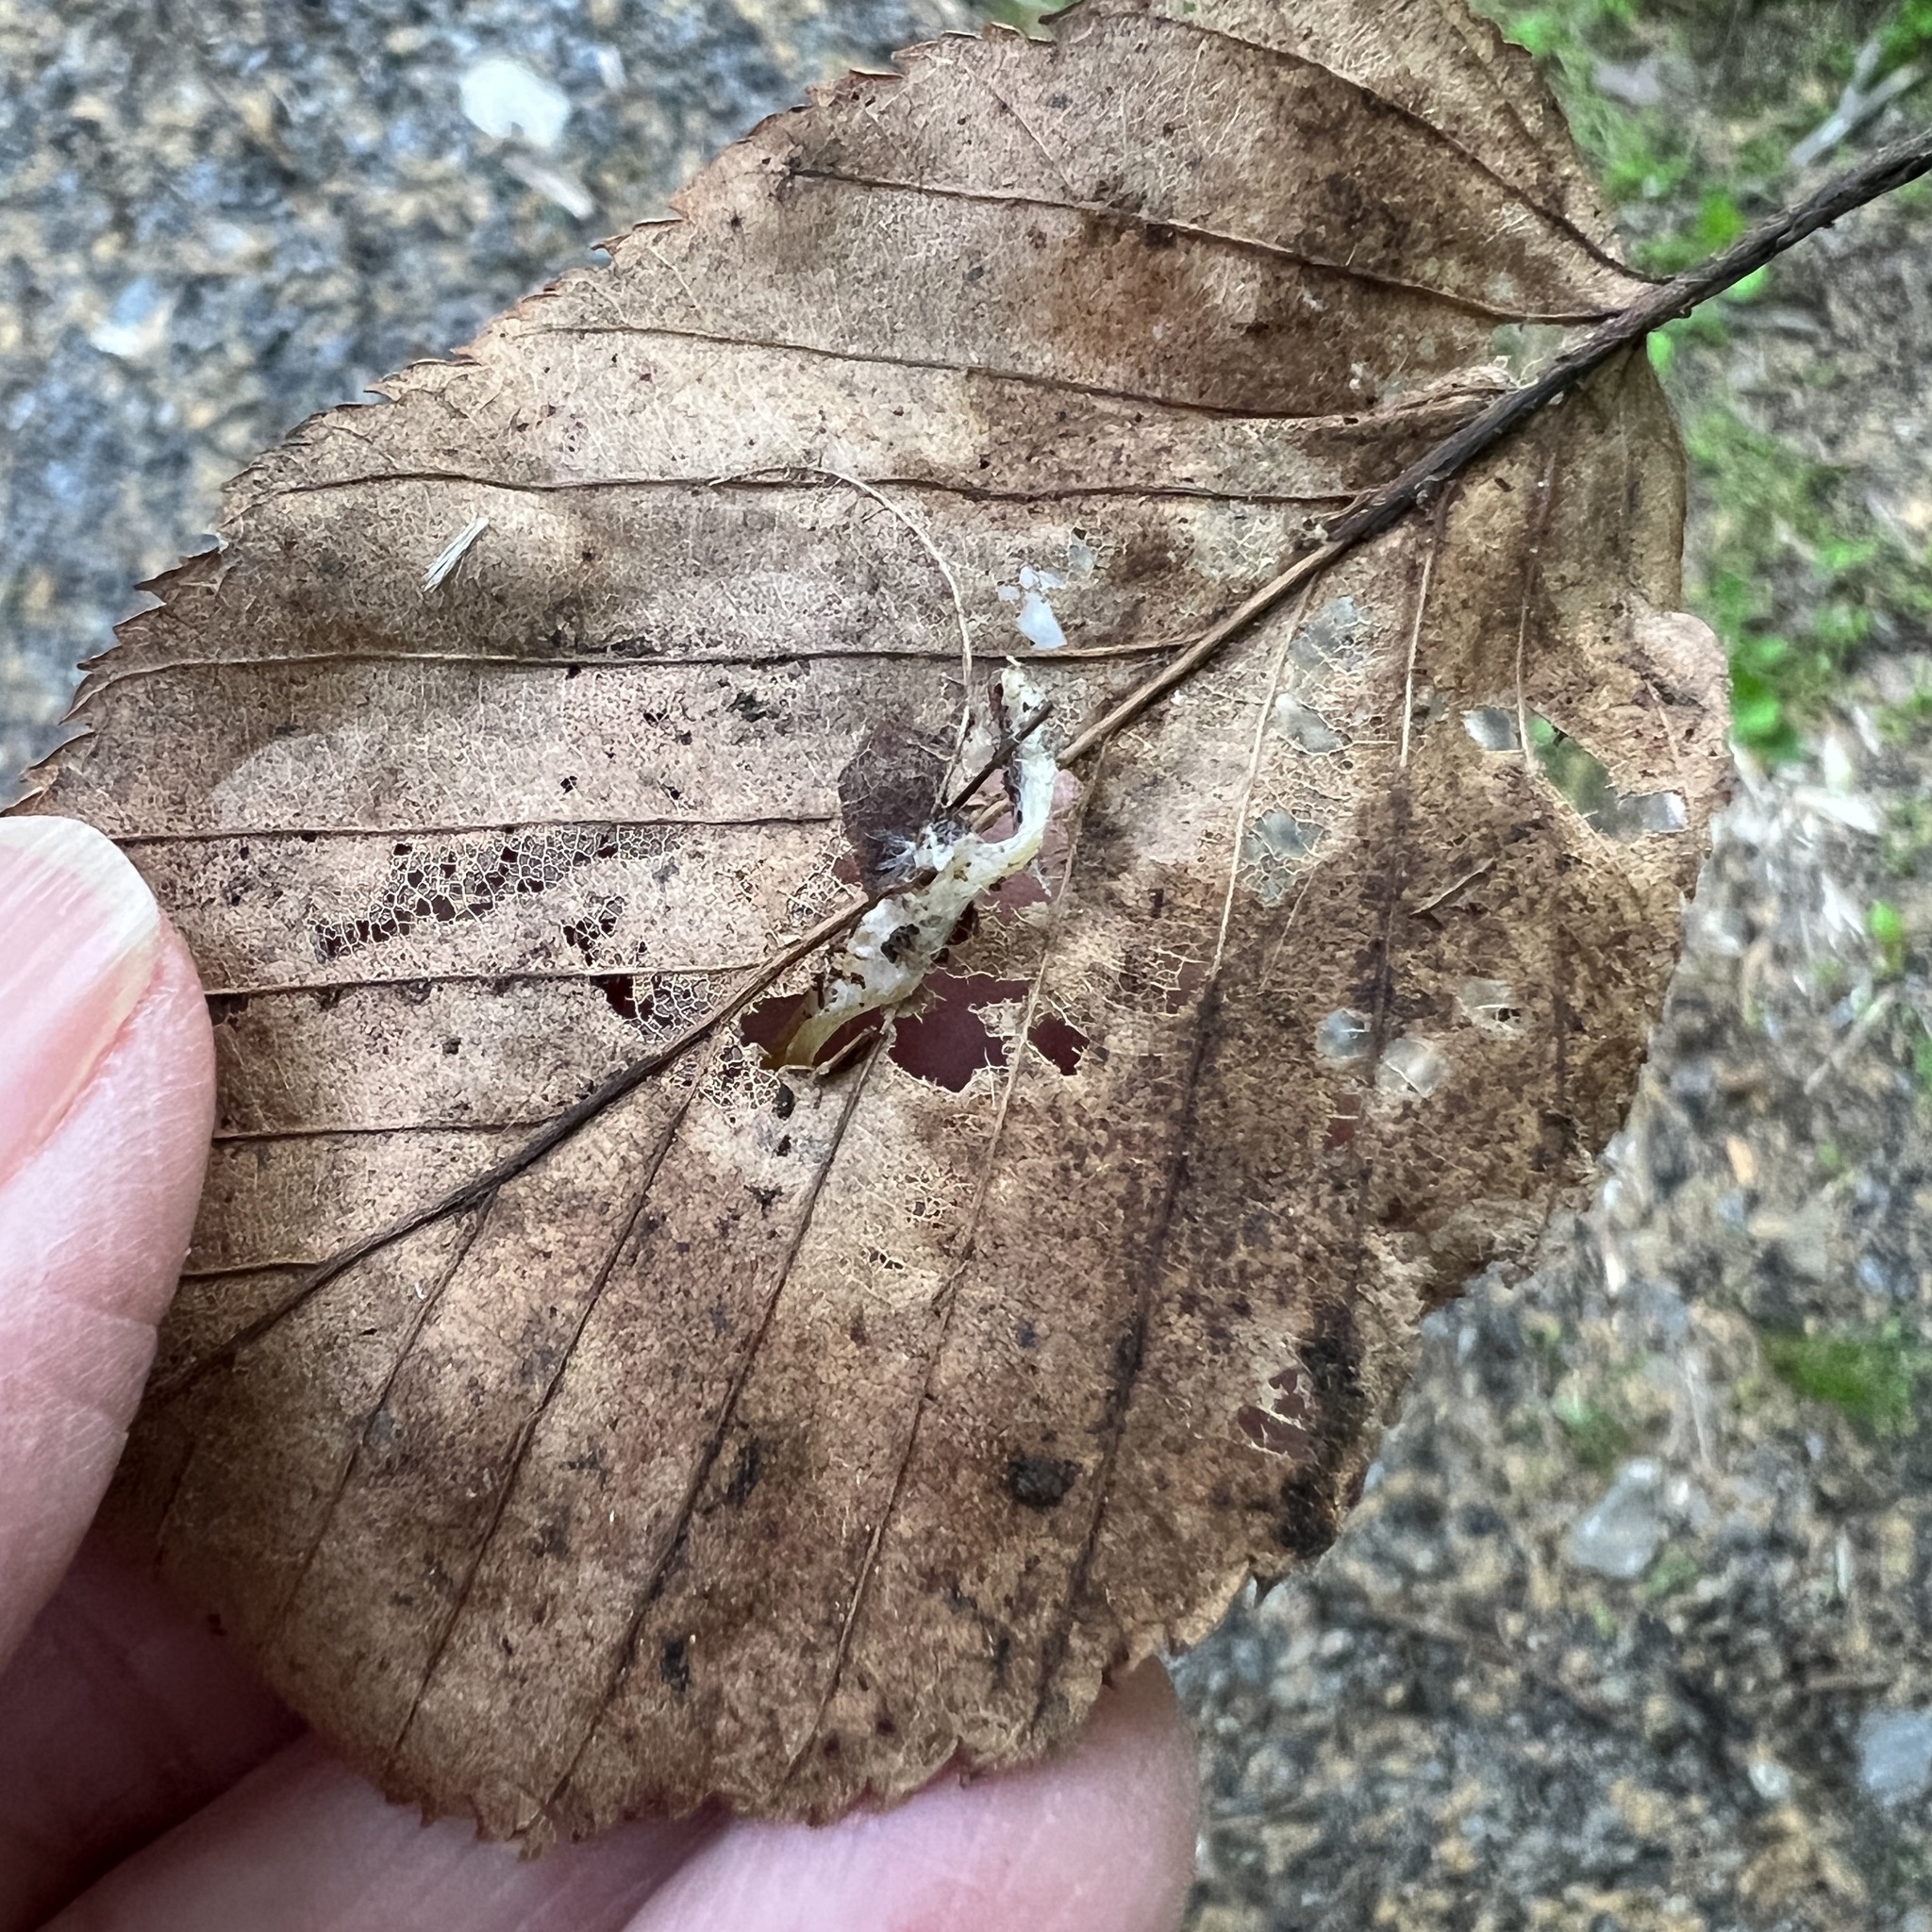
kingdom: Fungi
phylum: Basidiomycota
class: Agaricomycetes
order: Agaricales
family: Mycenaceae
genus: Mycena
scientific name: Mycena acicula
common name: Orange bonnet
